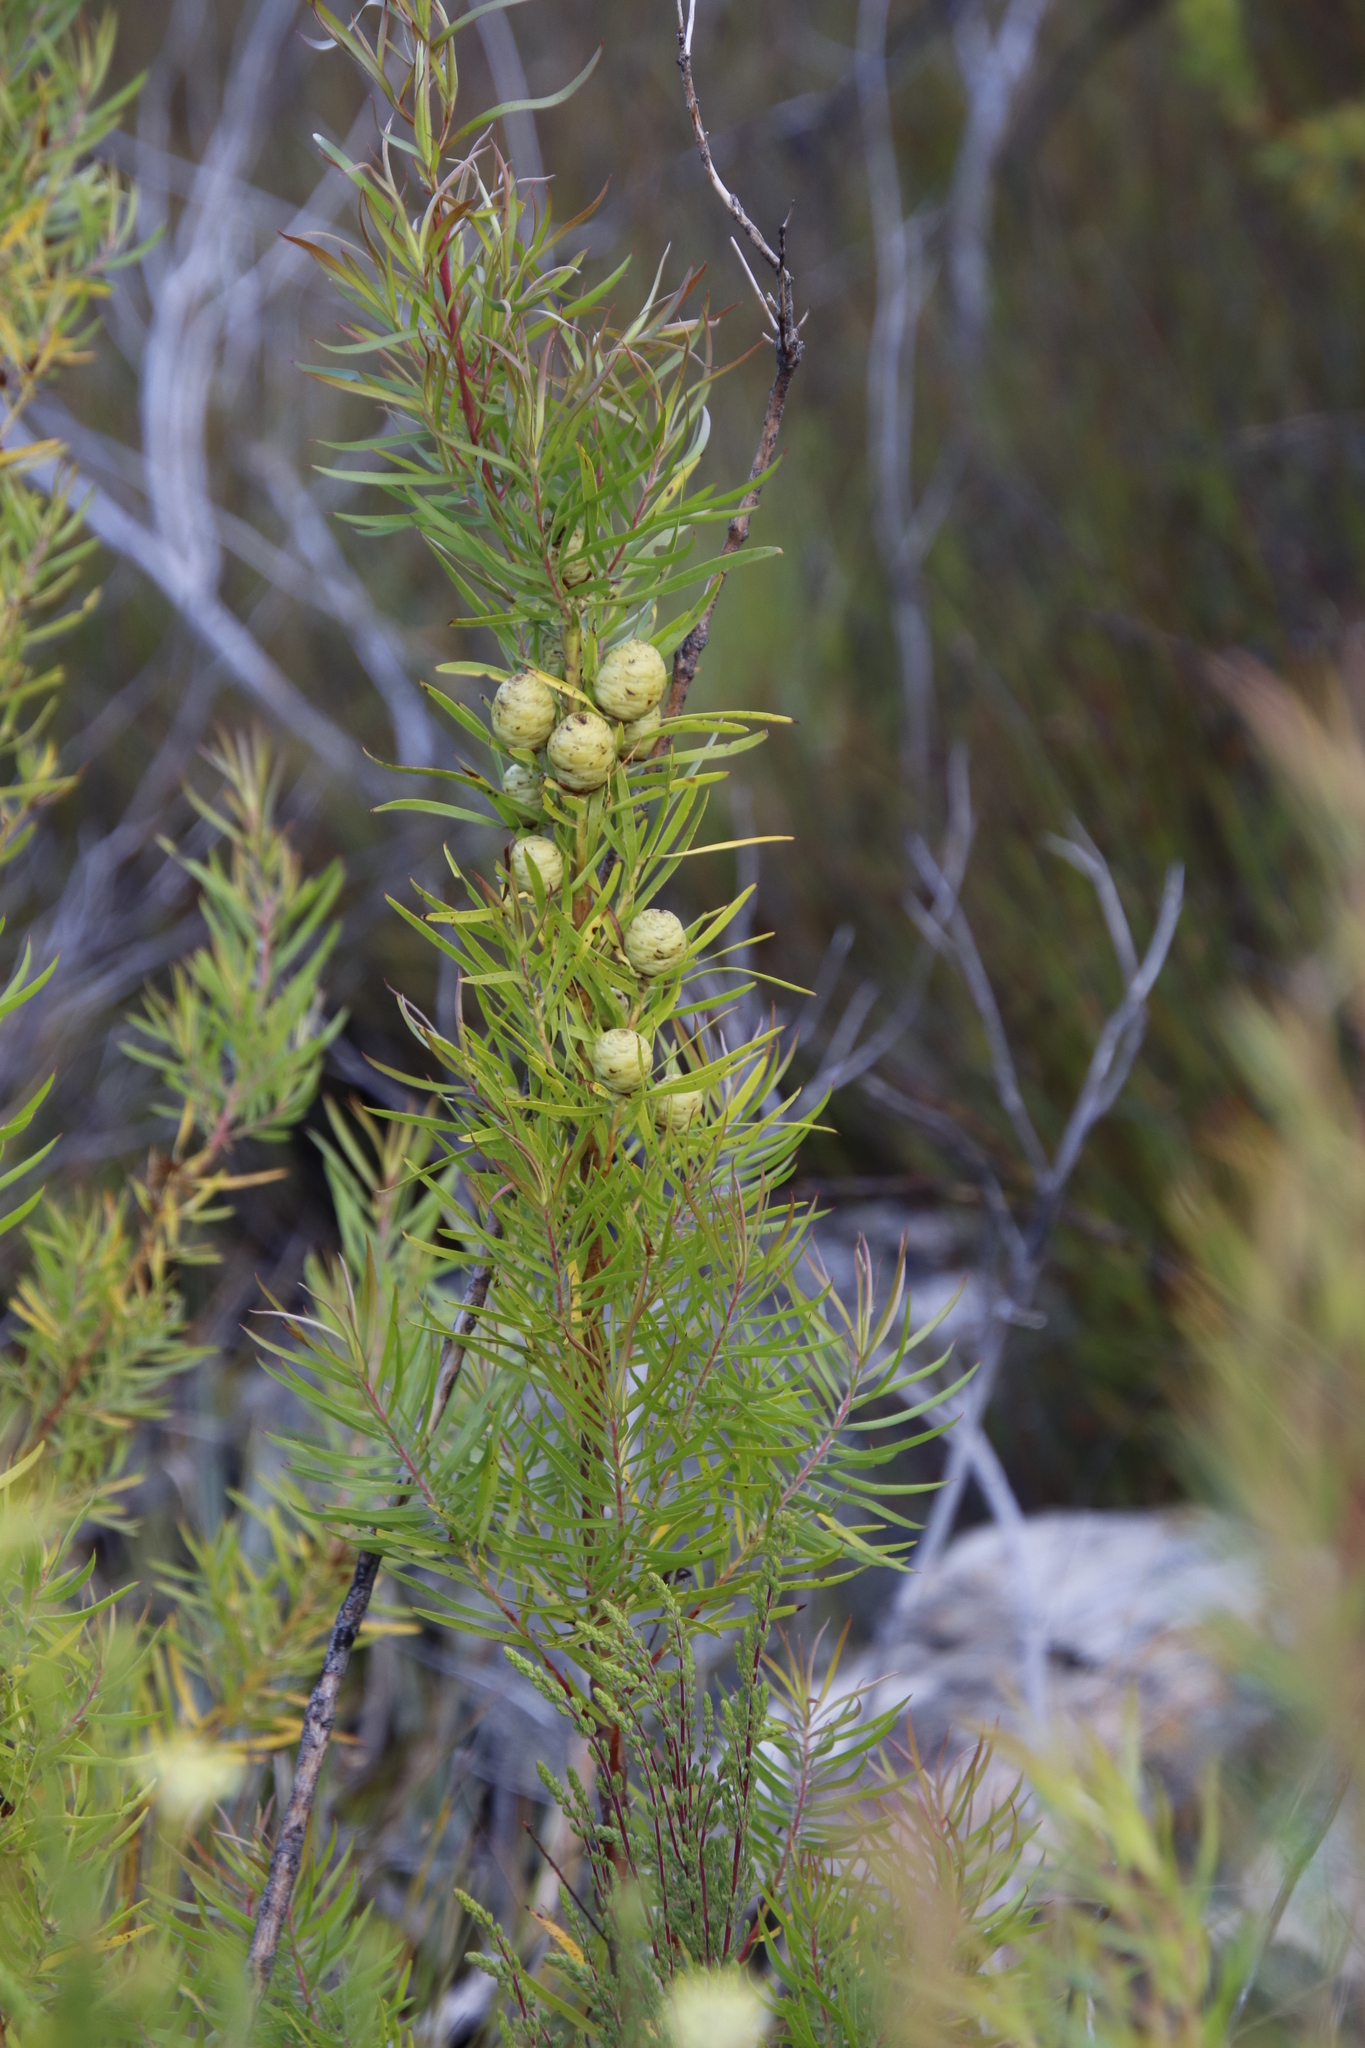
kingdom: Plantae
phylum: Tracheophyta
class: Magnoliopsida
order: Proteales
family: Proteaceae
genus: Leucadendron
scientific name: Leucadendron salicifolium
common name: Common stream conebush
